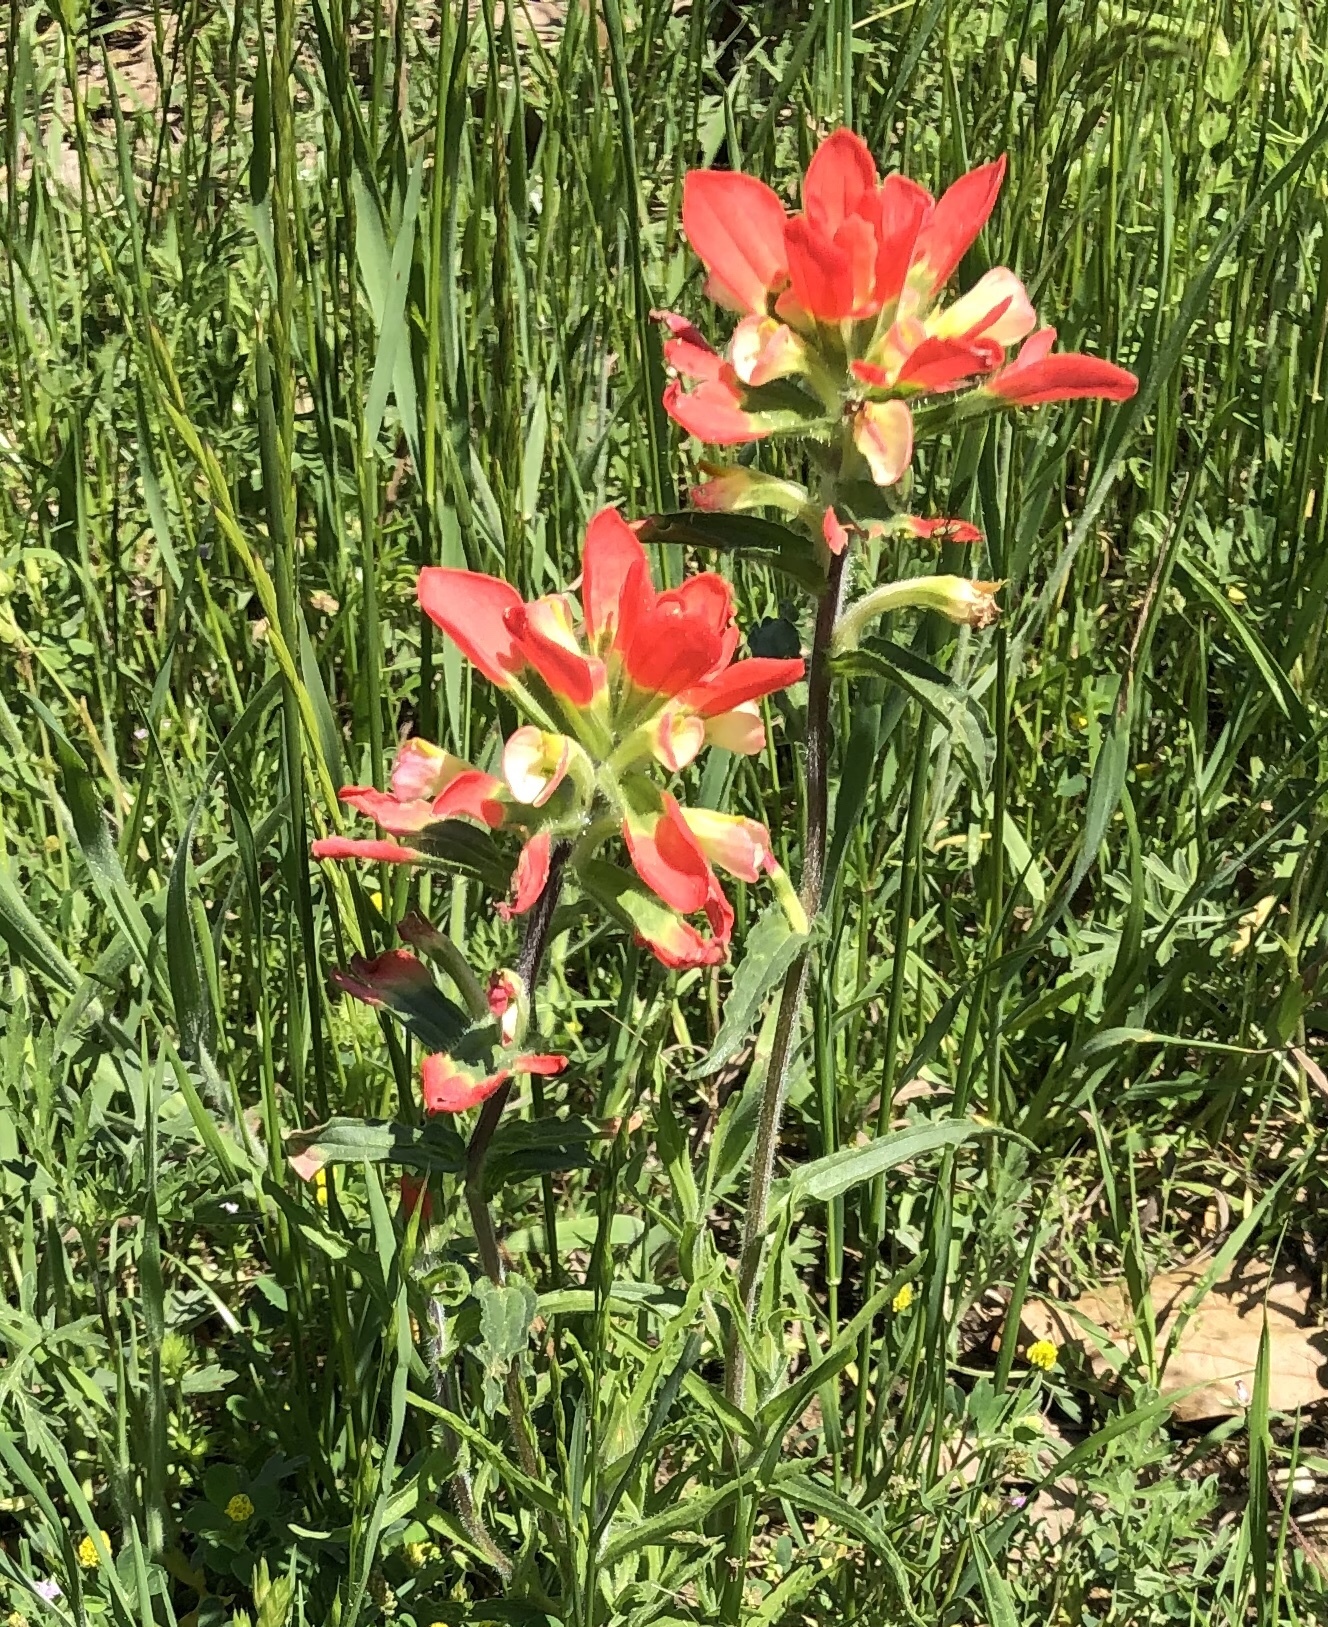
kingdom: Plantae
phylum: Tracheophyta
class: Magnoliopsida
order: Lamiales
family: Orobanchaceae
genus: Castilleja
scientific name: Castilleja indivisa
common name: Texas paintbrush
